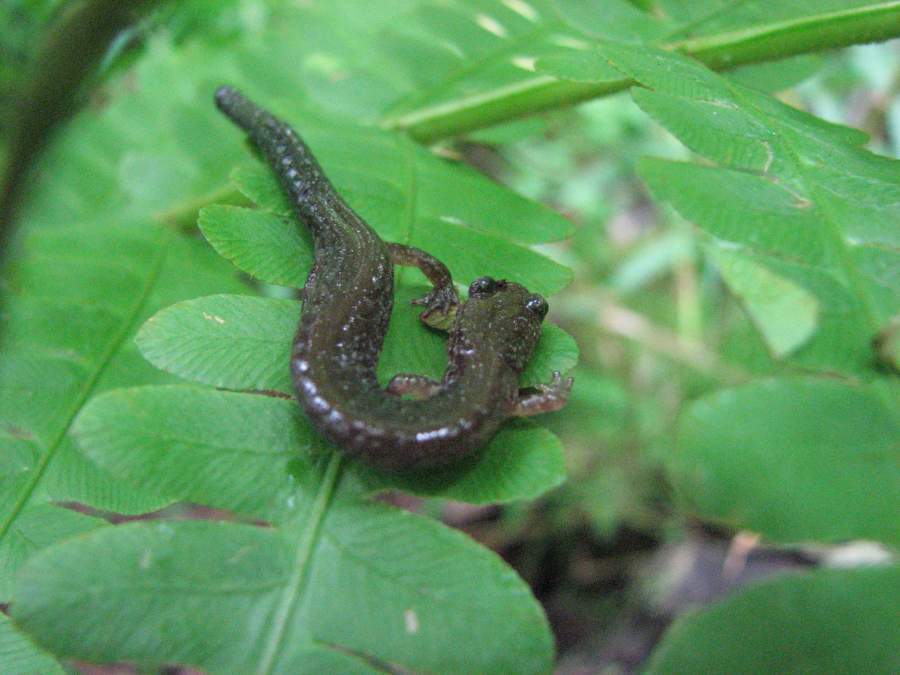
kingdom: Animalia
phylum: Chordata
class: Amphibia
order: Caudata
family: Plethodontidae
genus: Plethodon
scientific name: Plethodon cinereus
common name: Redback salamander
